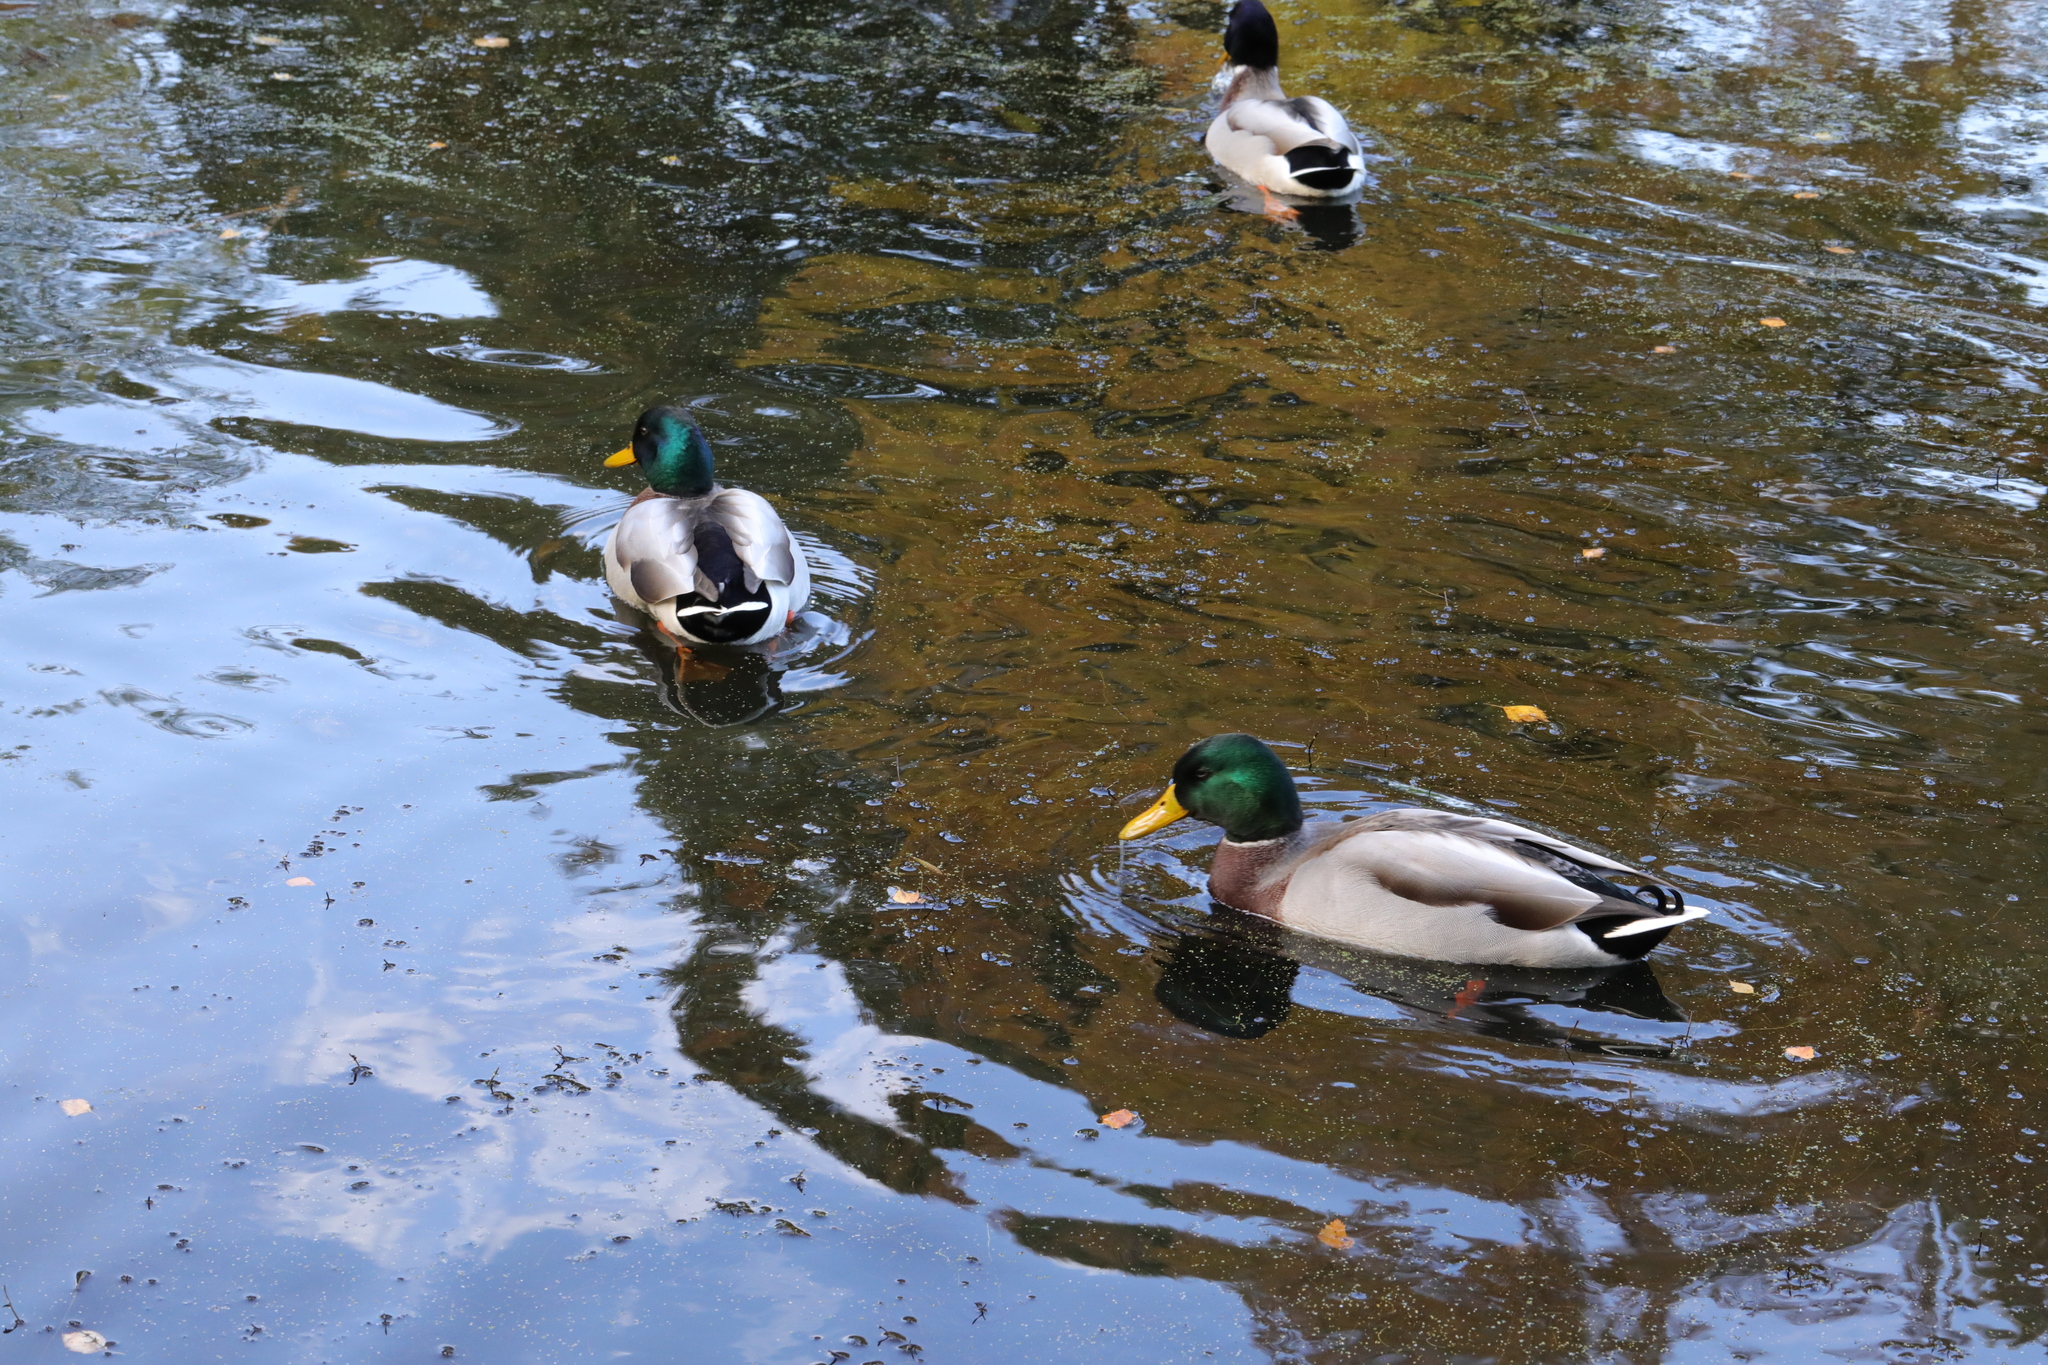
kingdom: Animalia
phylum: Chordata
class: Aves
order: Anseriformes
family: Anatidae
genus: Anas
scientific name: Anas platyrhynchos
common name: Mallard
